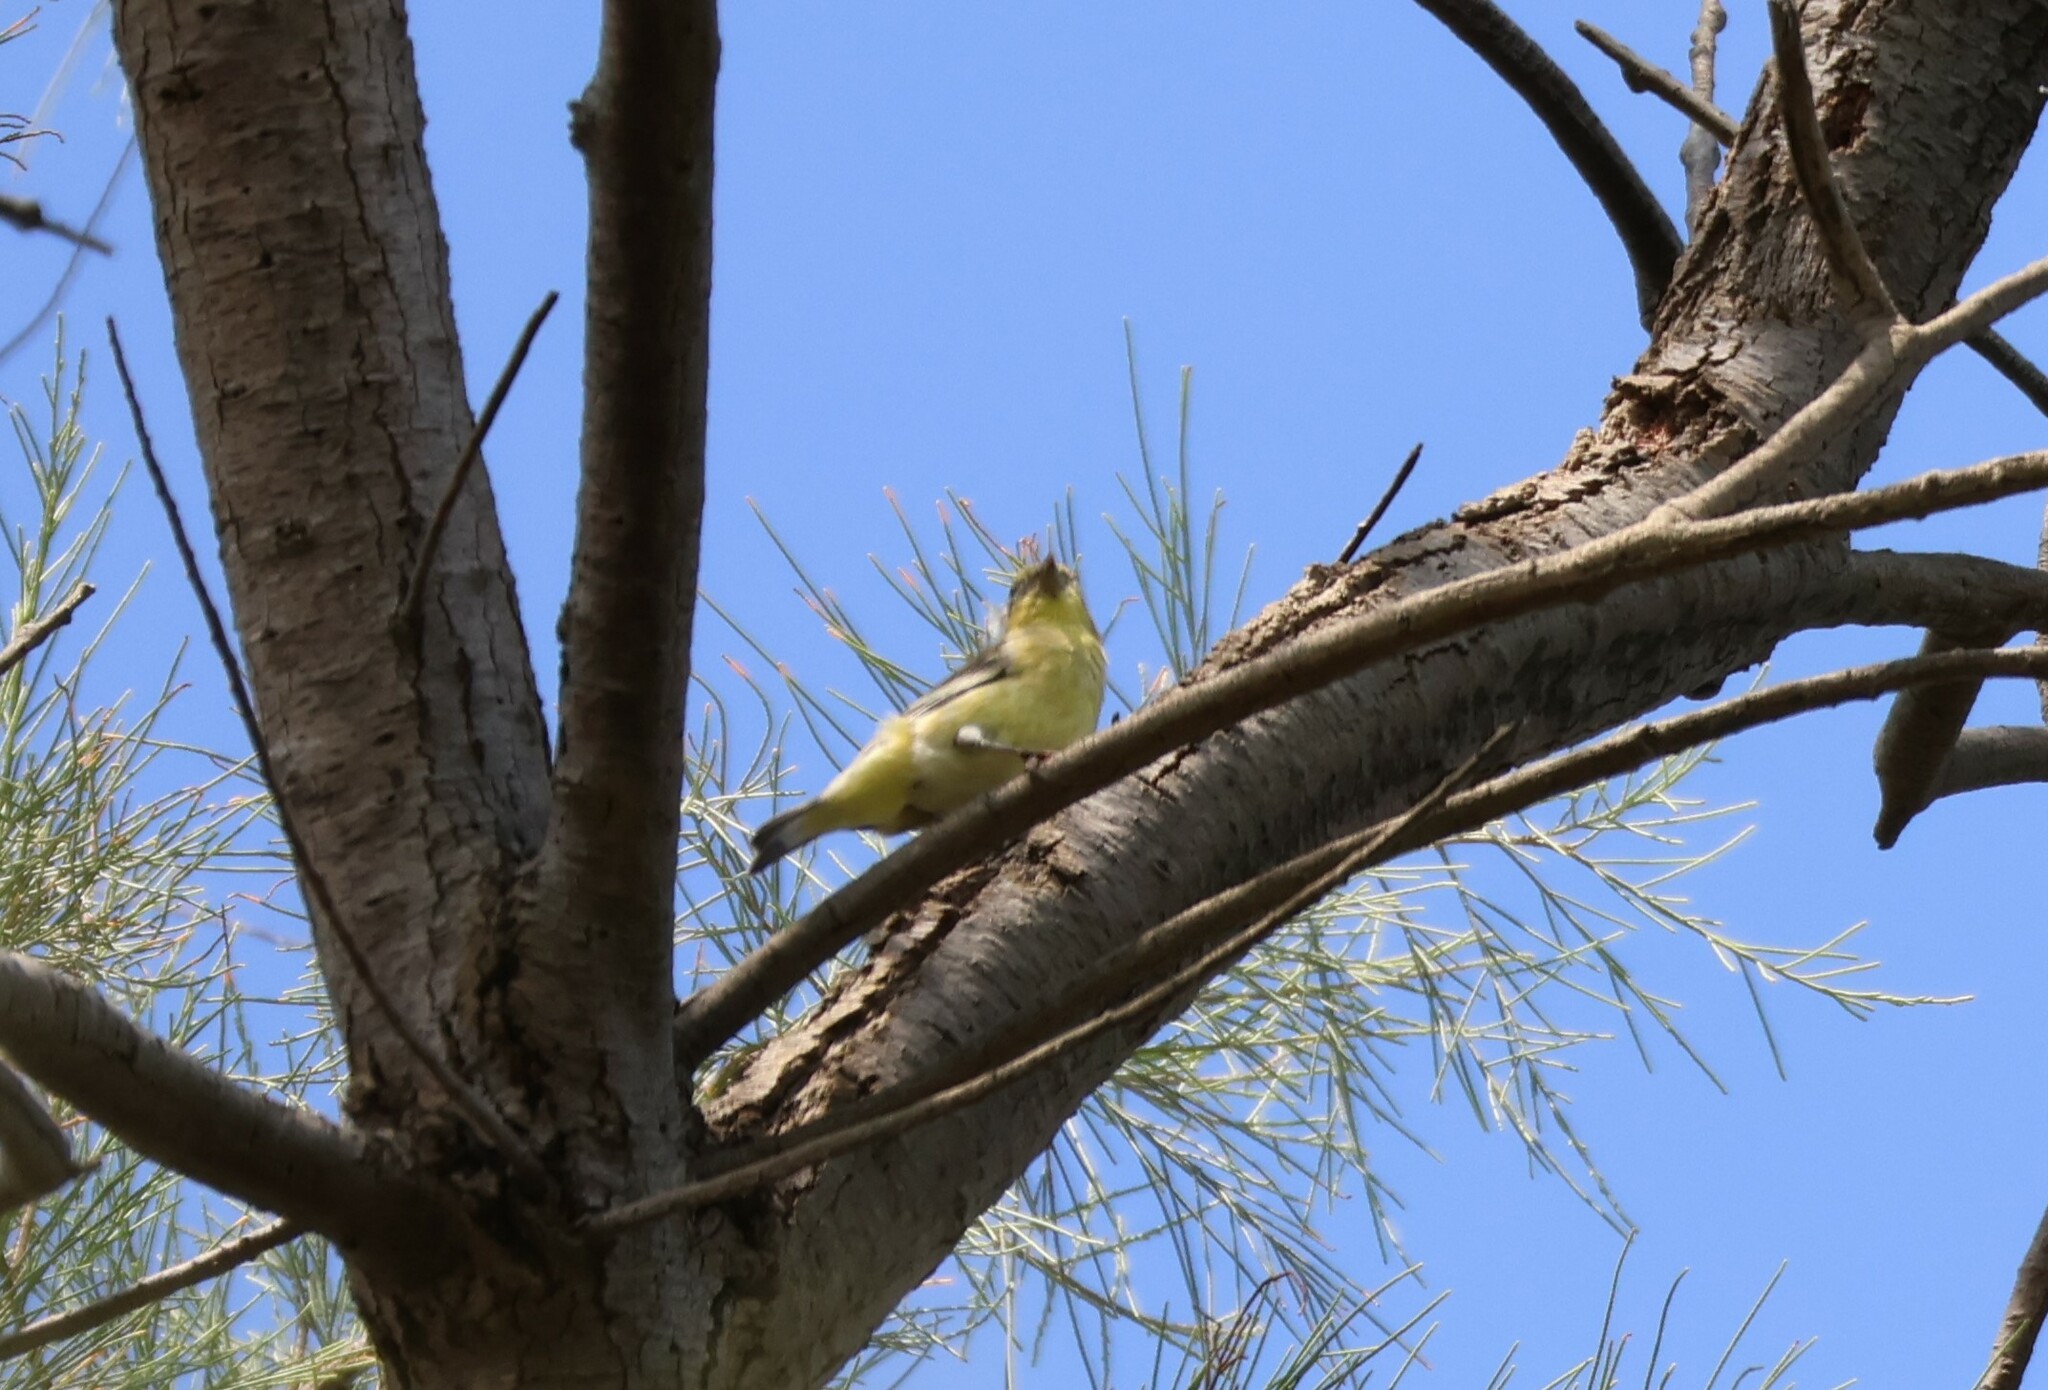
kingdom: Animalia
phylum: Chordata
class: Aves
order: Passeriformes
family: Fringillidae
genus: Spinus
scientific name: Spinus psaltria
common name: Lesser goldfinch
